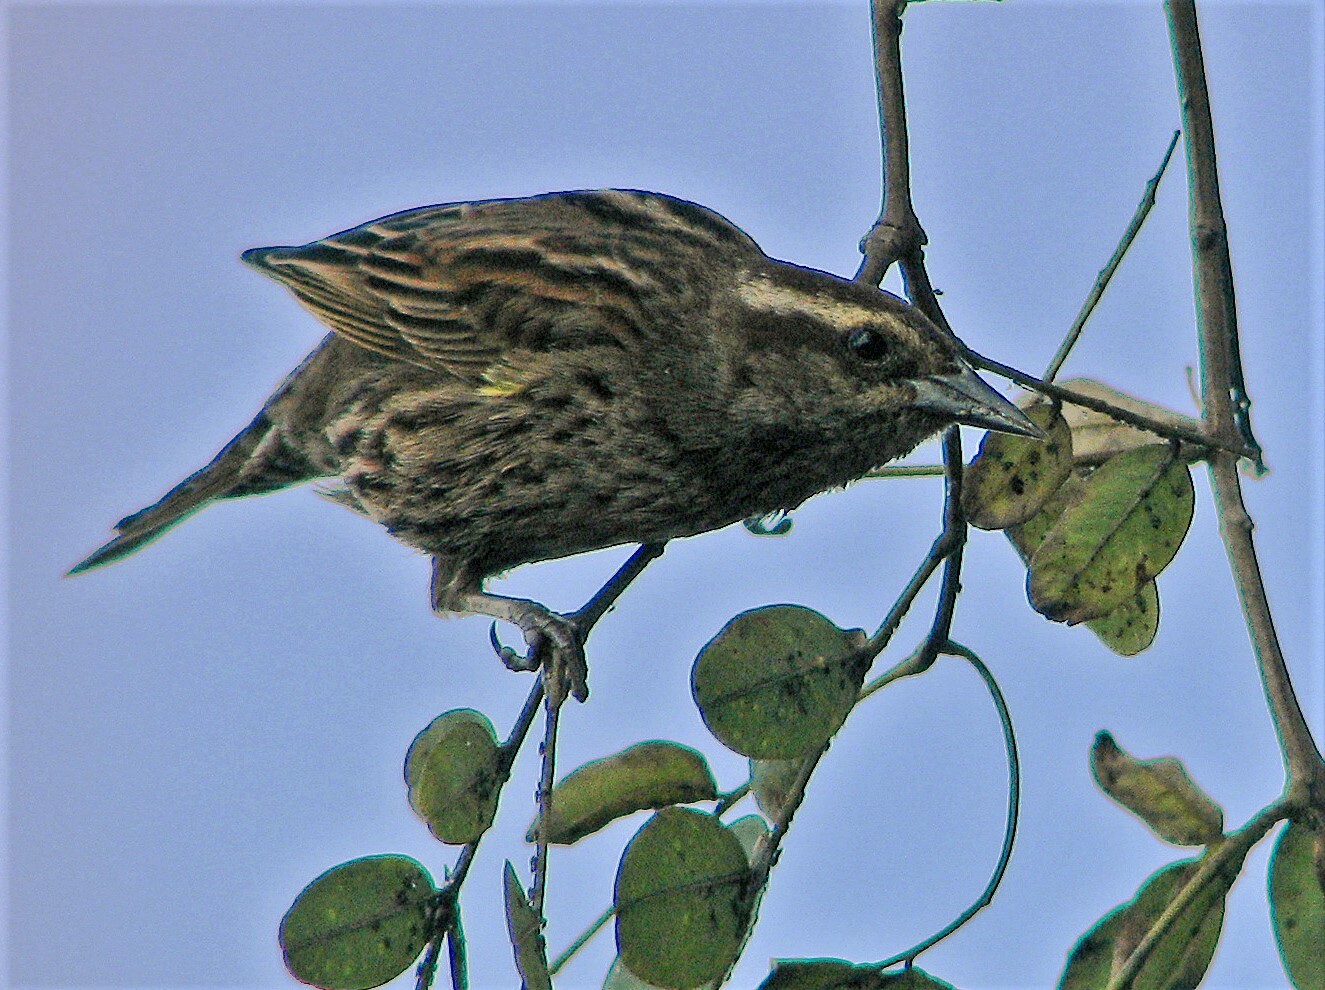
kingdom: Animalia
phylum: Chordata
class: Aves
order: Passeriformes
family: Icteridae
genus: Agelasticus
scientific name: Agelasticus thilius
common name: Yellow-winged blackbird
